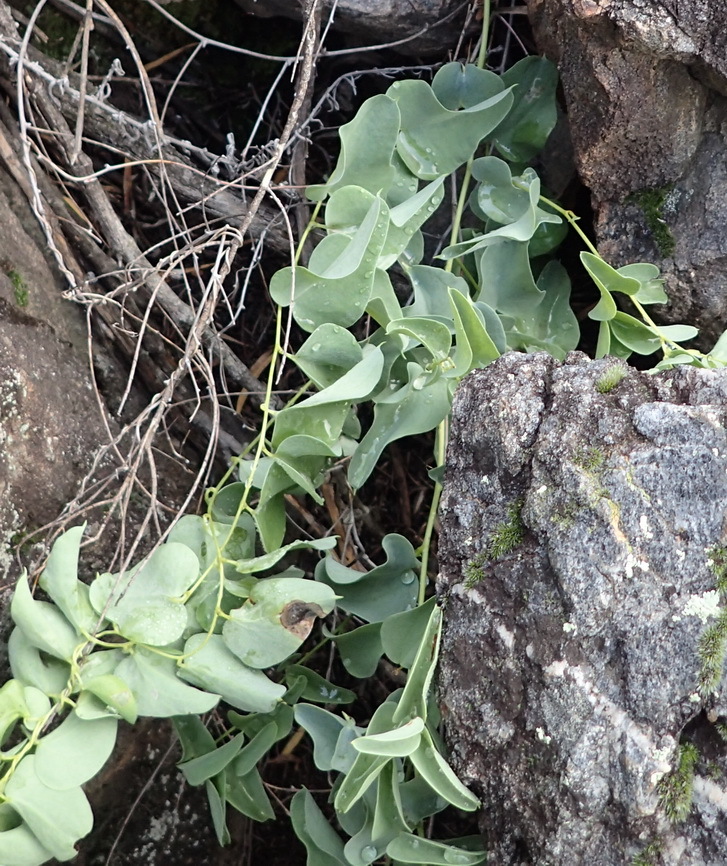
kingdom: Plantae
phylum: Tracheophyta
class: Liliopsida
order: Dioscoreales
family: Dioscoreaceae
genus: Dioscorea
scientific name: Dioscorea hemicrypta
